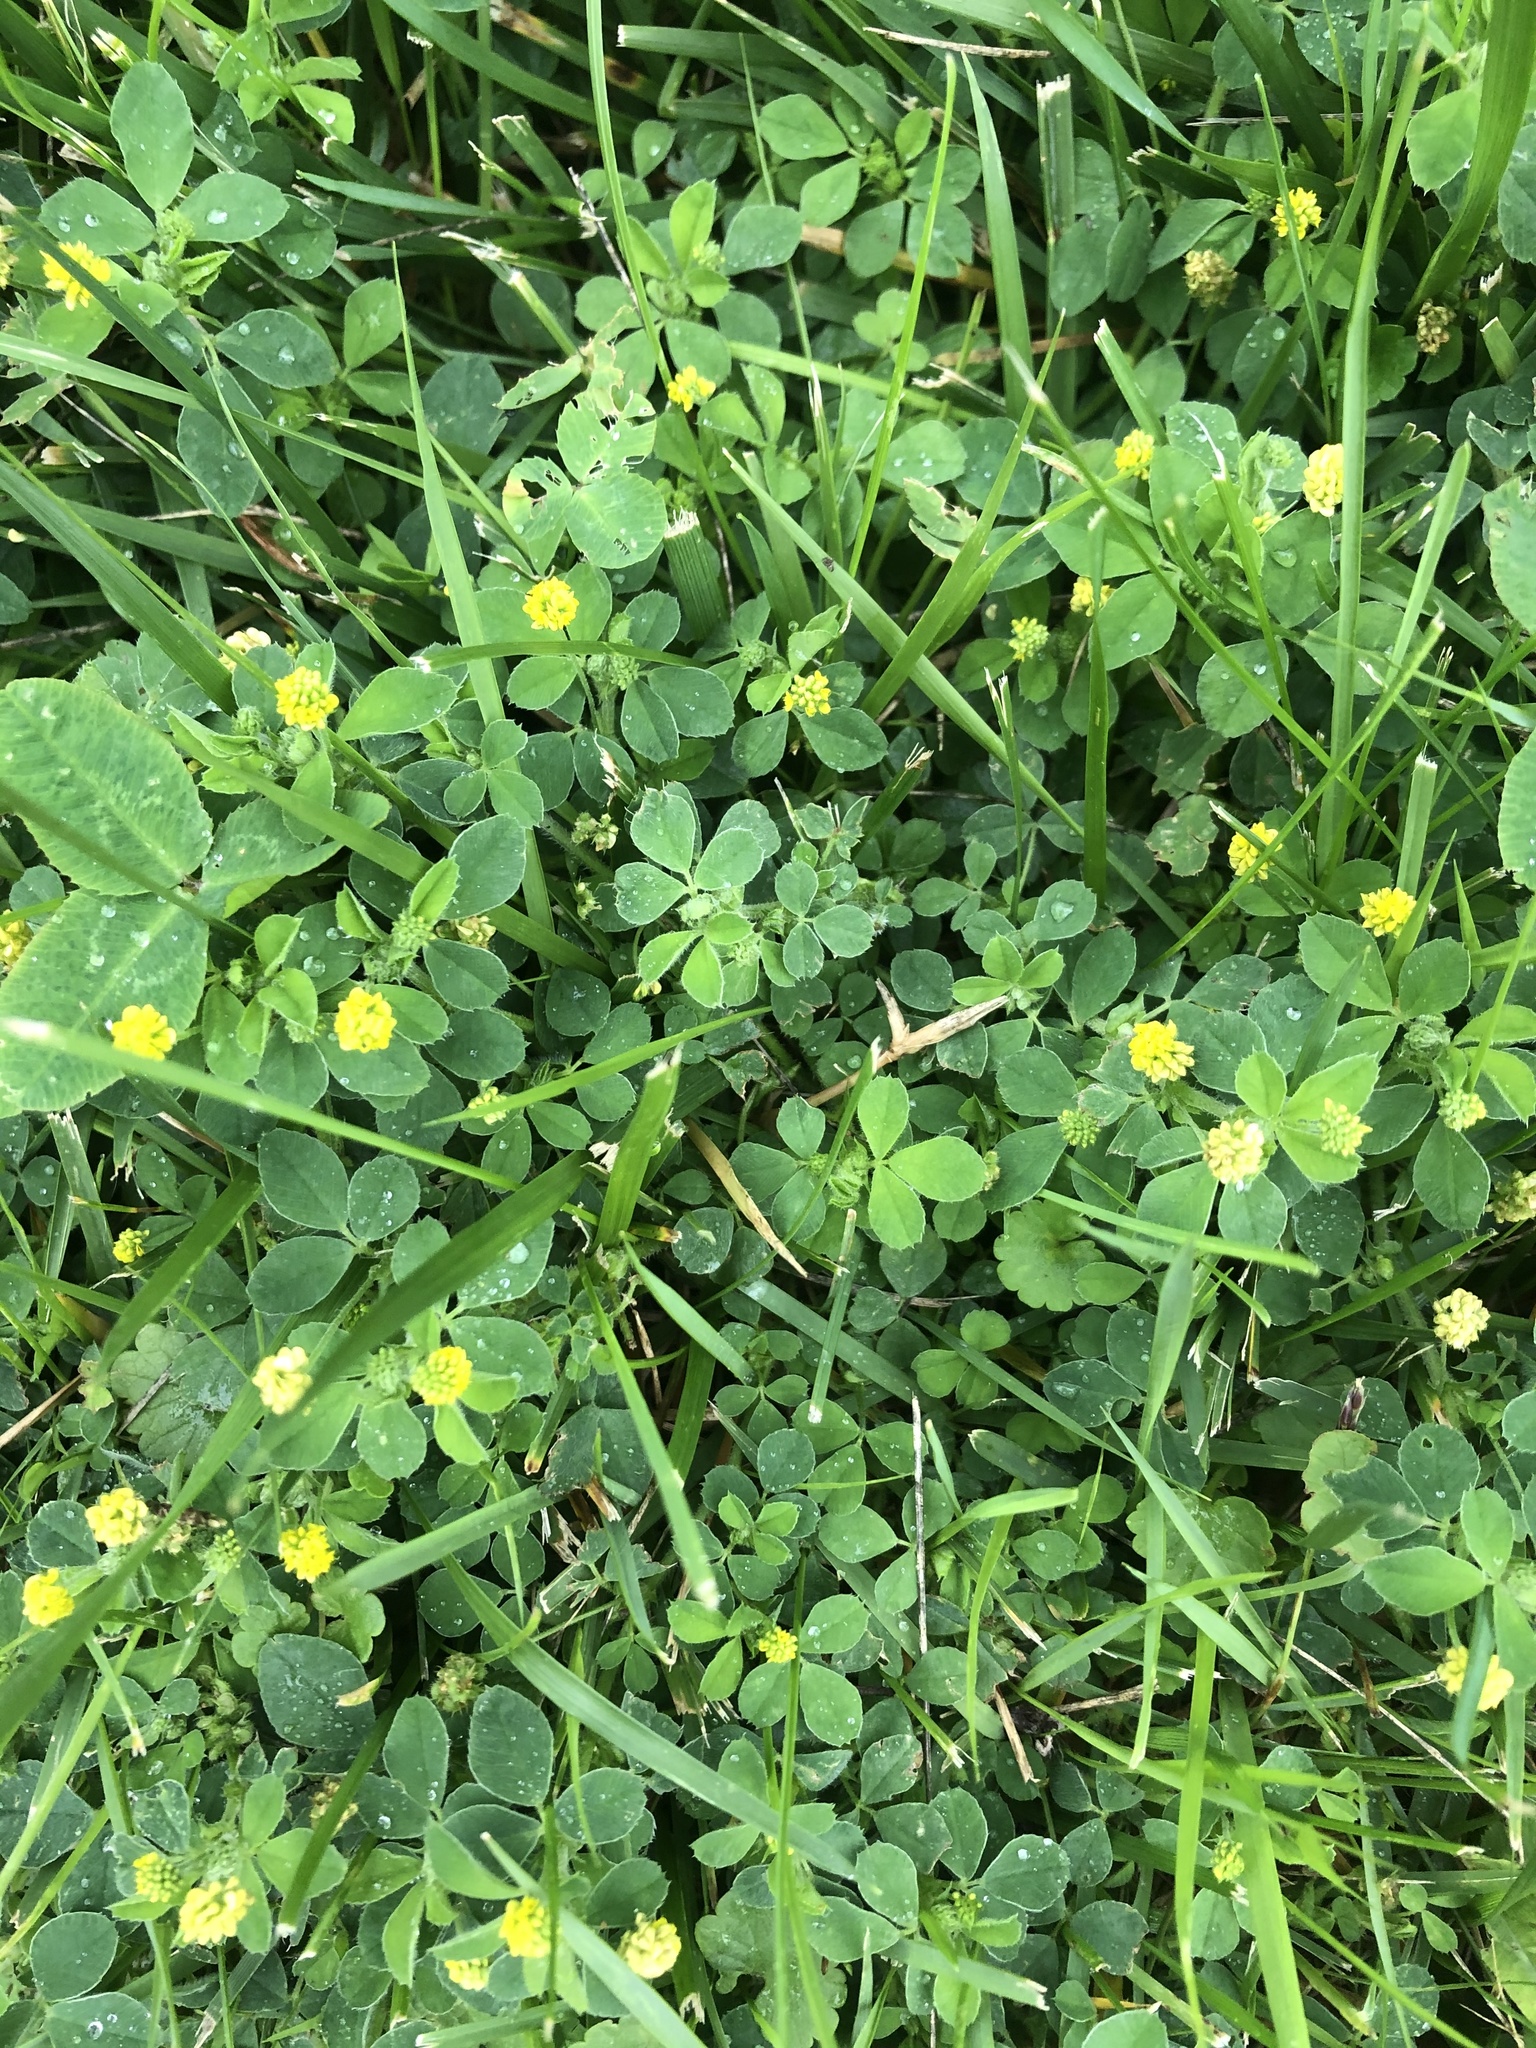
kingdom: Plantae
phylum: Tracheophyta
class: Magnoliopsida
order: Fabales
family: Fabaceae
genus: Medicago
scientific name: Medicago lupulina
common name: Black medick
